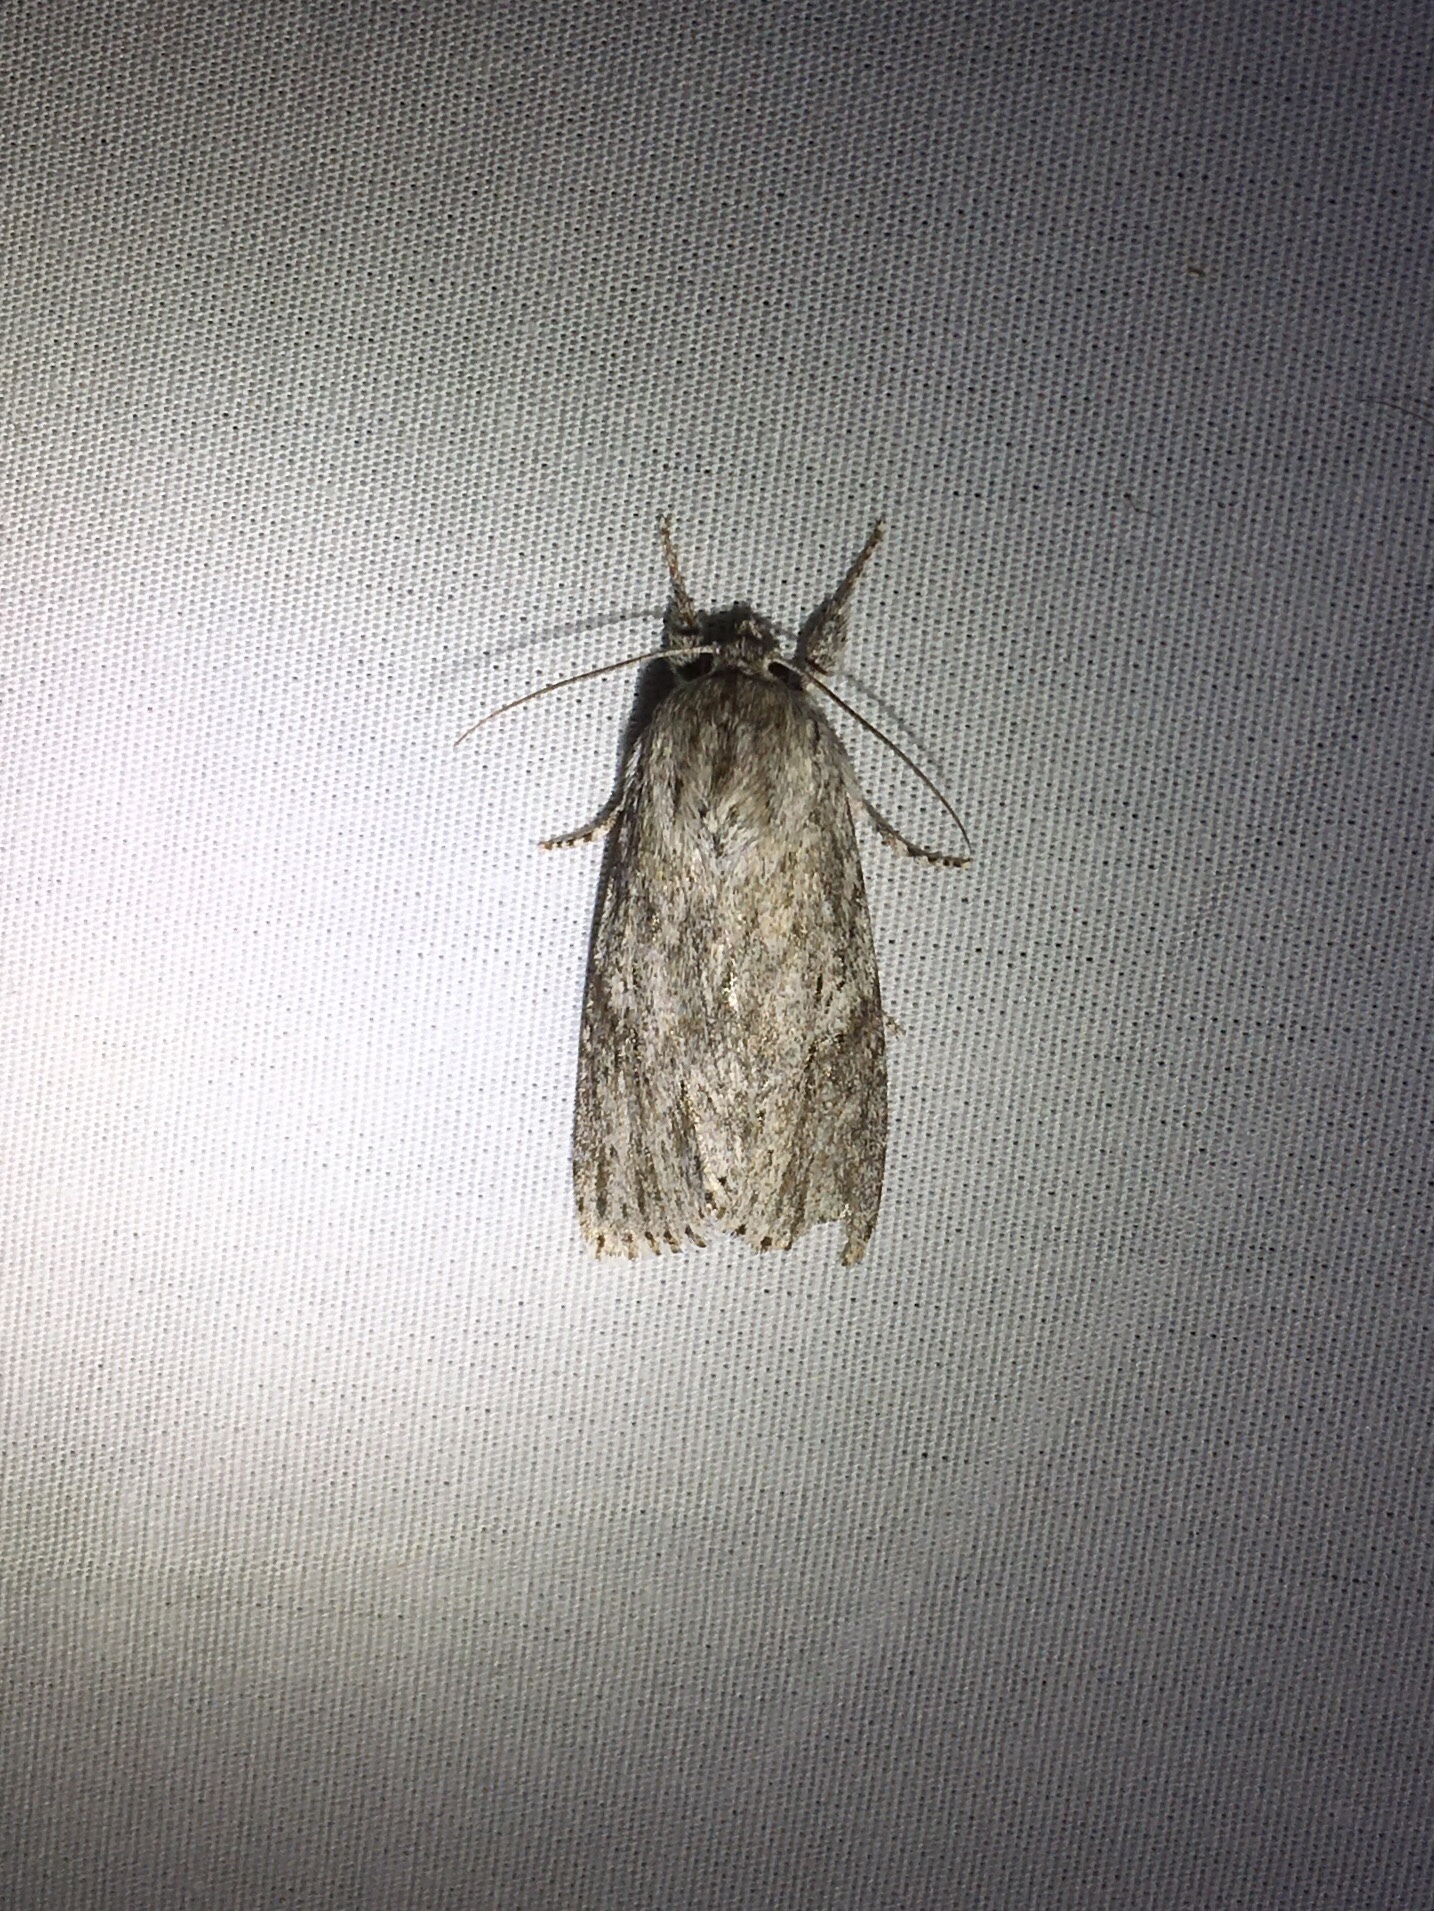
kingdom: Animalia
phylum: Arthropoda
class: Insecta
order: Lepidoptera
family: Noctuidae
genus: Acronicta
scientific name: Acronicta oblinita
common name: Smeared dagger
